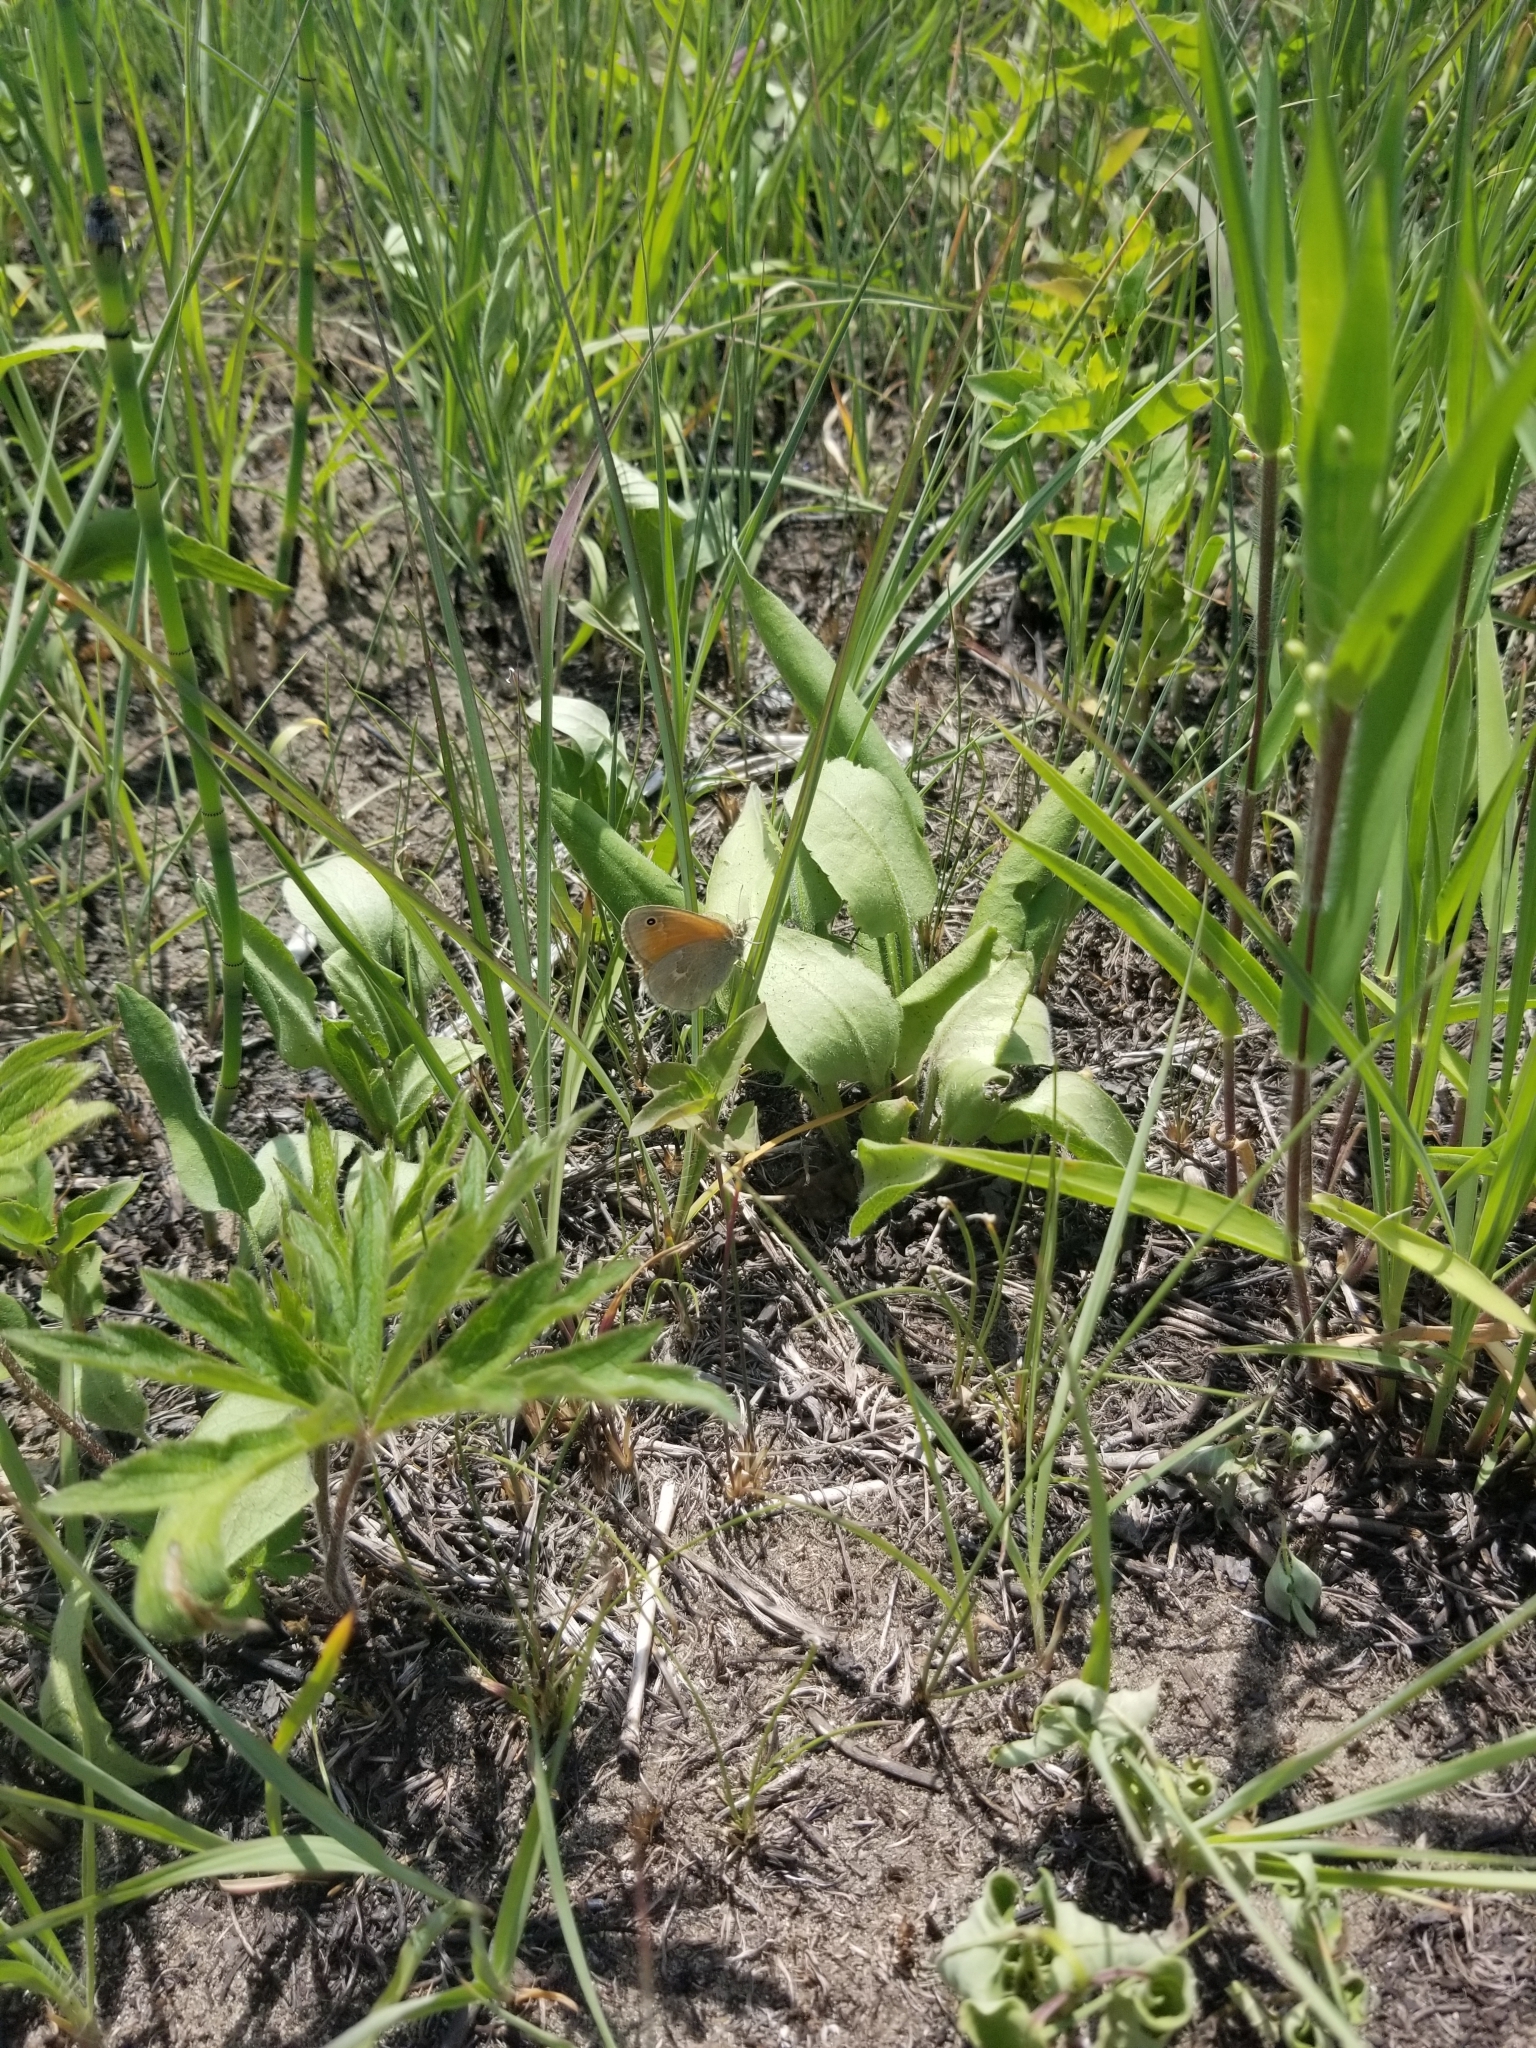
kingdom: Animalia
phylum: Arthropoda
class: Insecta
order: Lepidoptera
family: Nymphalidae
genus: Coenonympha
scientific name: Coenonympha california
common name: Common ringlet
